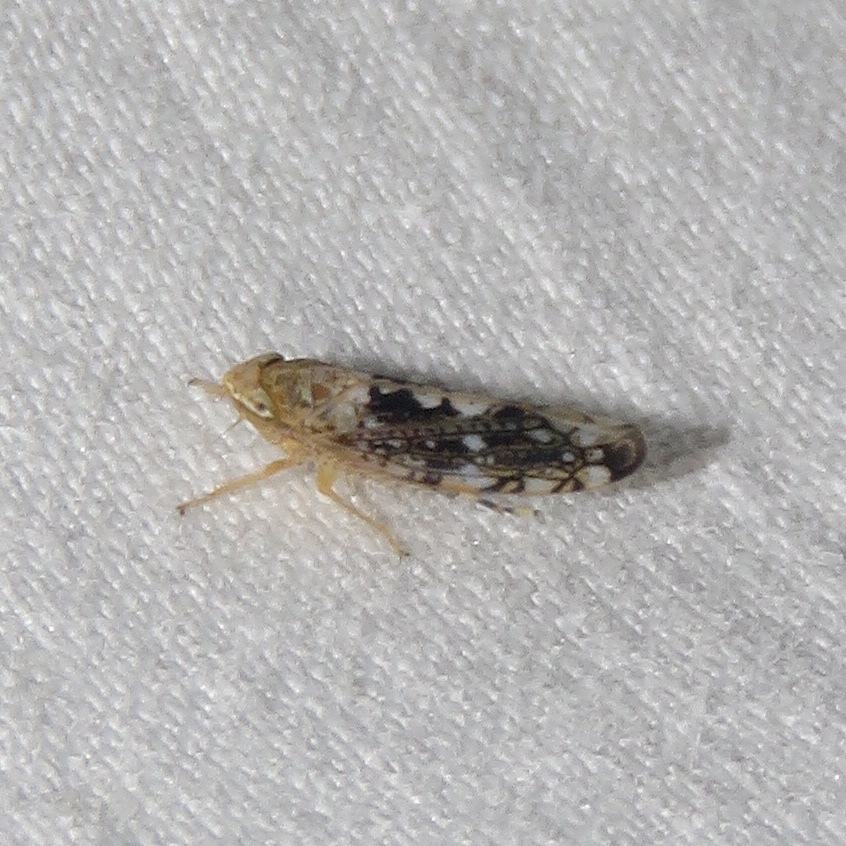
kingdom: Animalia
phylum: Arthropoda
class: Insecta
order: Hemiptera
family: Cicadellidae
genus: Prescottia
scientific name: Prescottia lobata
